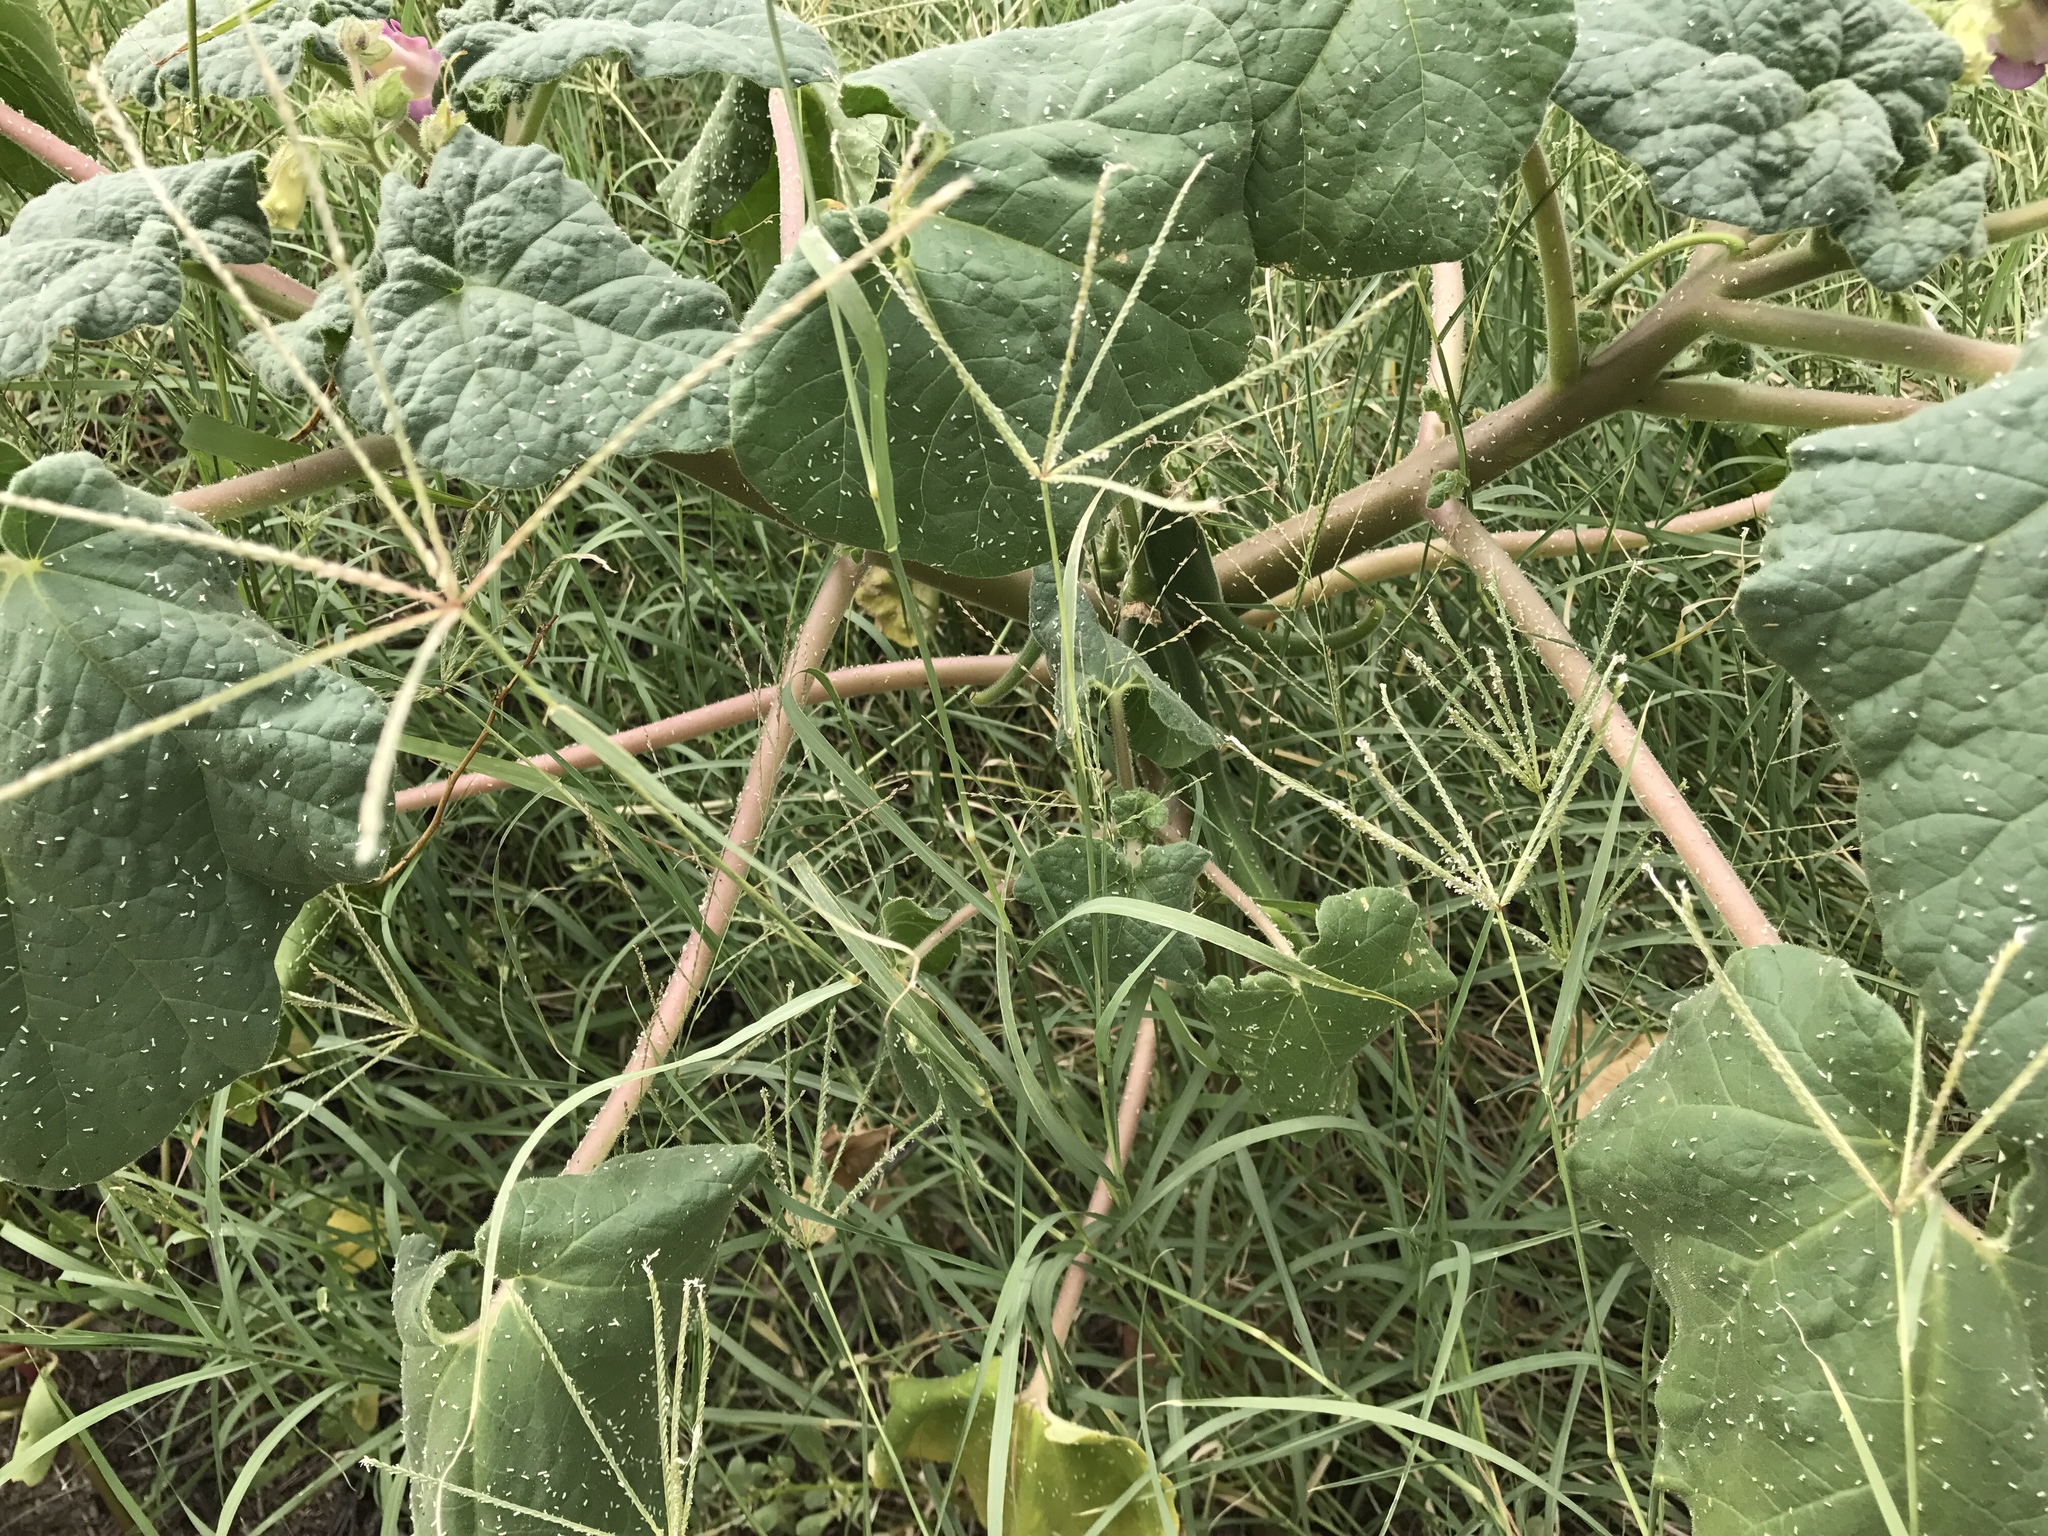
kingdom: Plantae
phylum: Tracheophyta
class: Magnoliopsida
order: Lamiales
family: Martyniaceae
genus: Proboscidea
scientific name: Proboscidea parviflora
